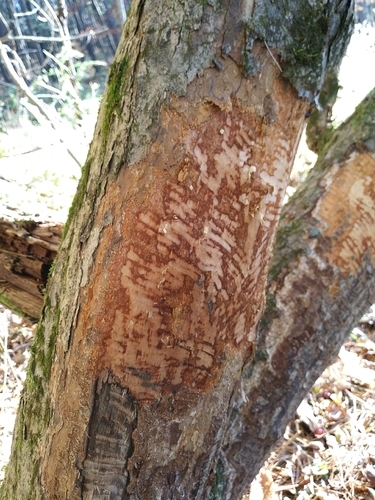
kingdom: Animalia
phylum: Chordata
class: Mammalia
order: Rodentia
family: Castoridae
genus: Castor
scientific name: Castor canadensis
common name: American beaver
